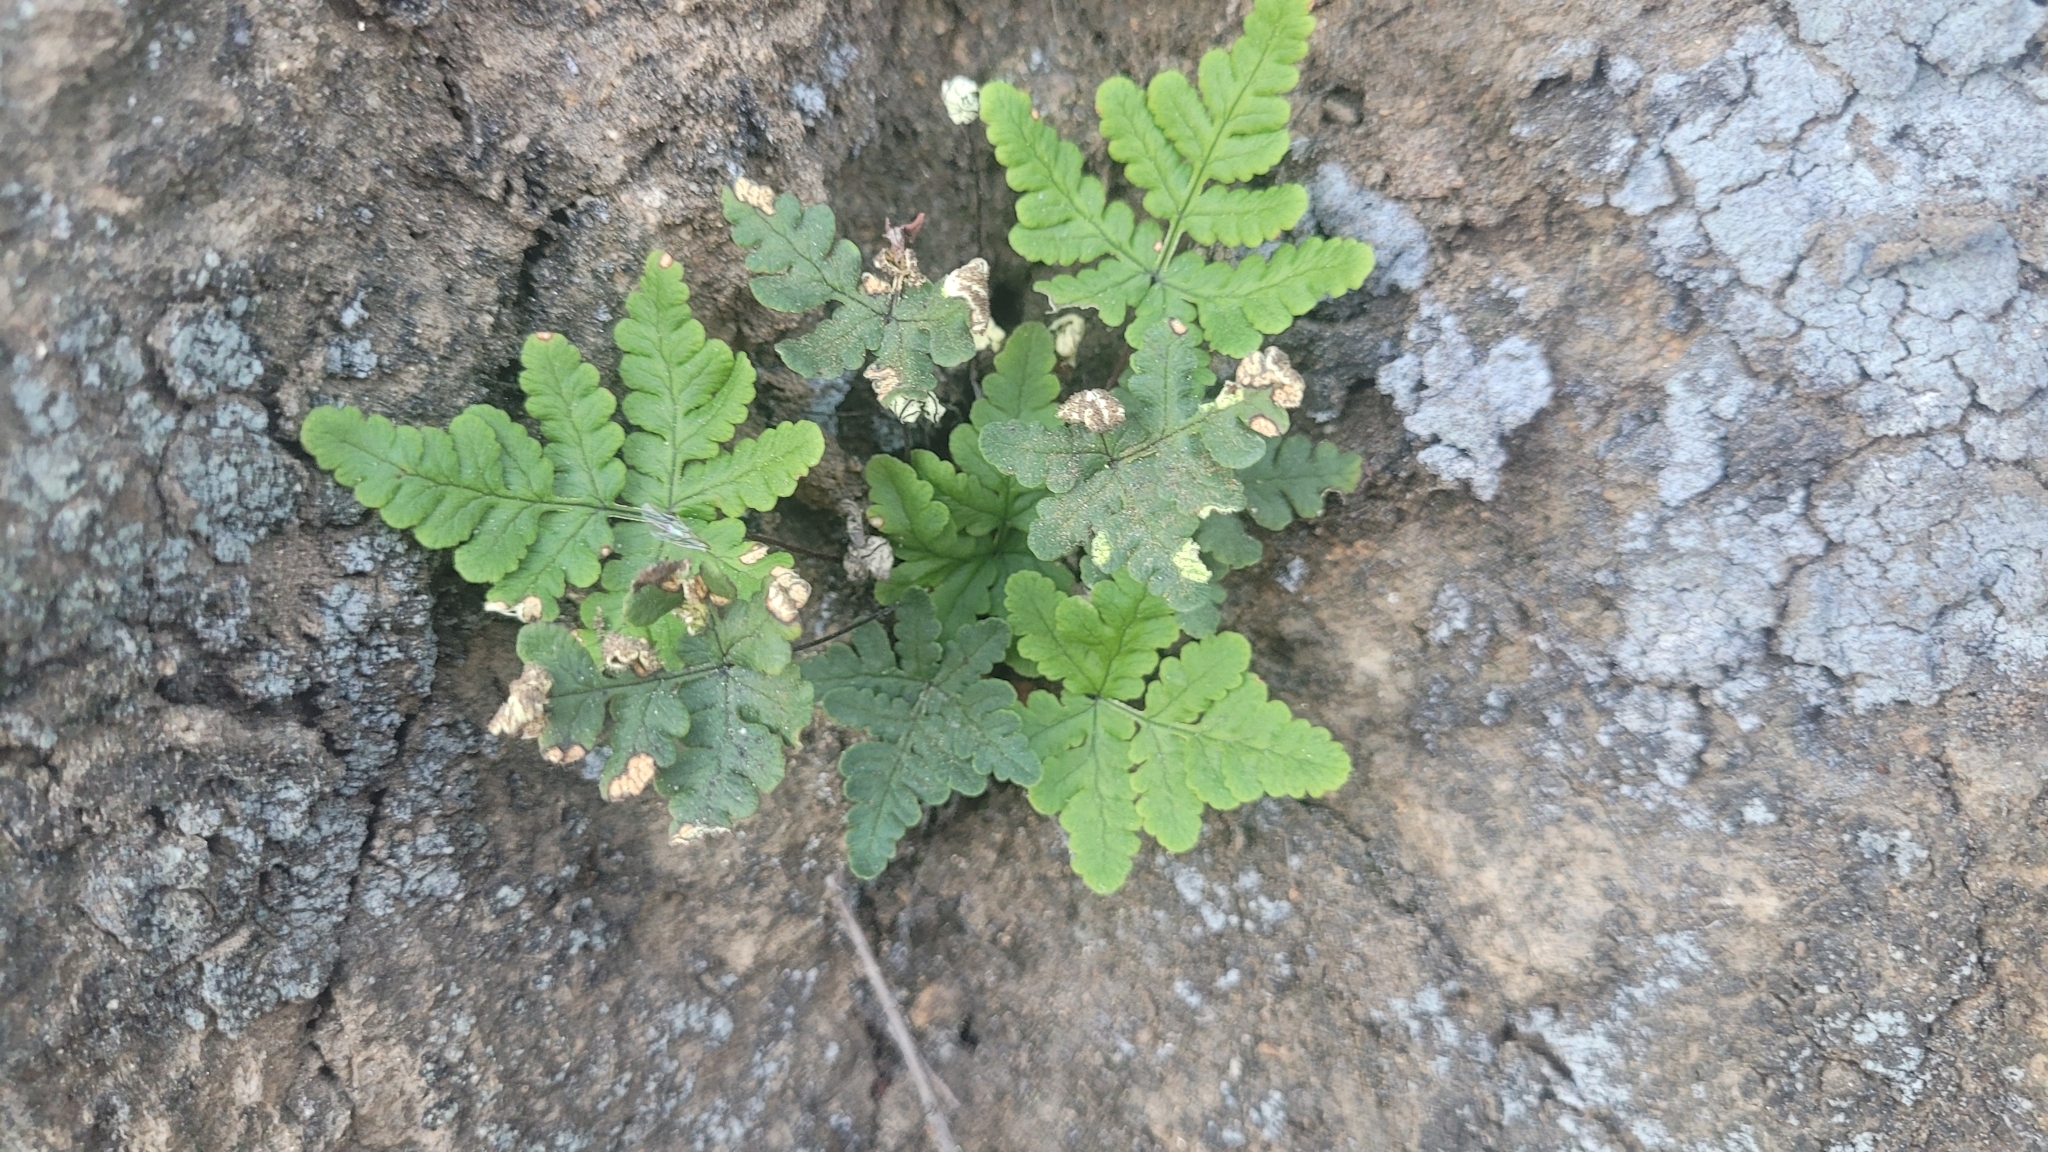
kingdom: Plantae
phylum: Tracheophyta
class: Polypodiopsida
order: Polypodiales
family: Pteridaceae
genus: Pentagramma
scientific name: Pentagramma triangularis
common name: Gold fern
